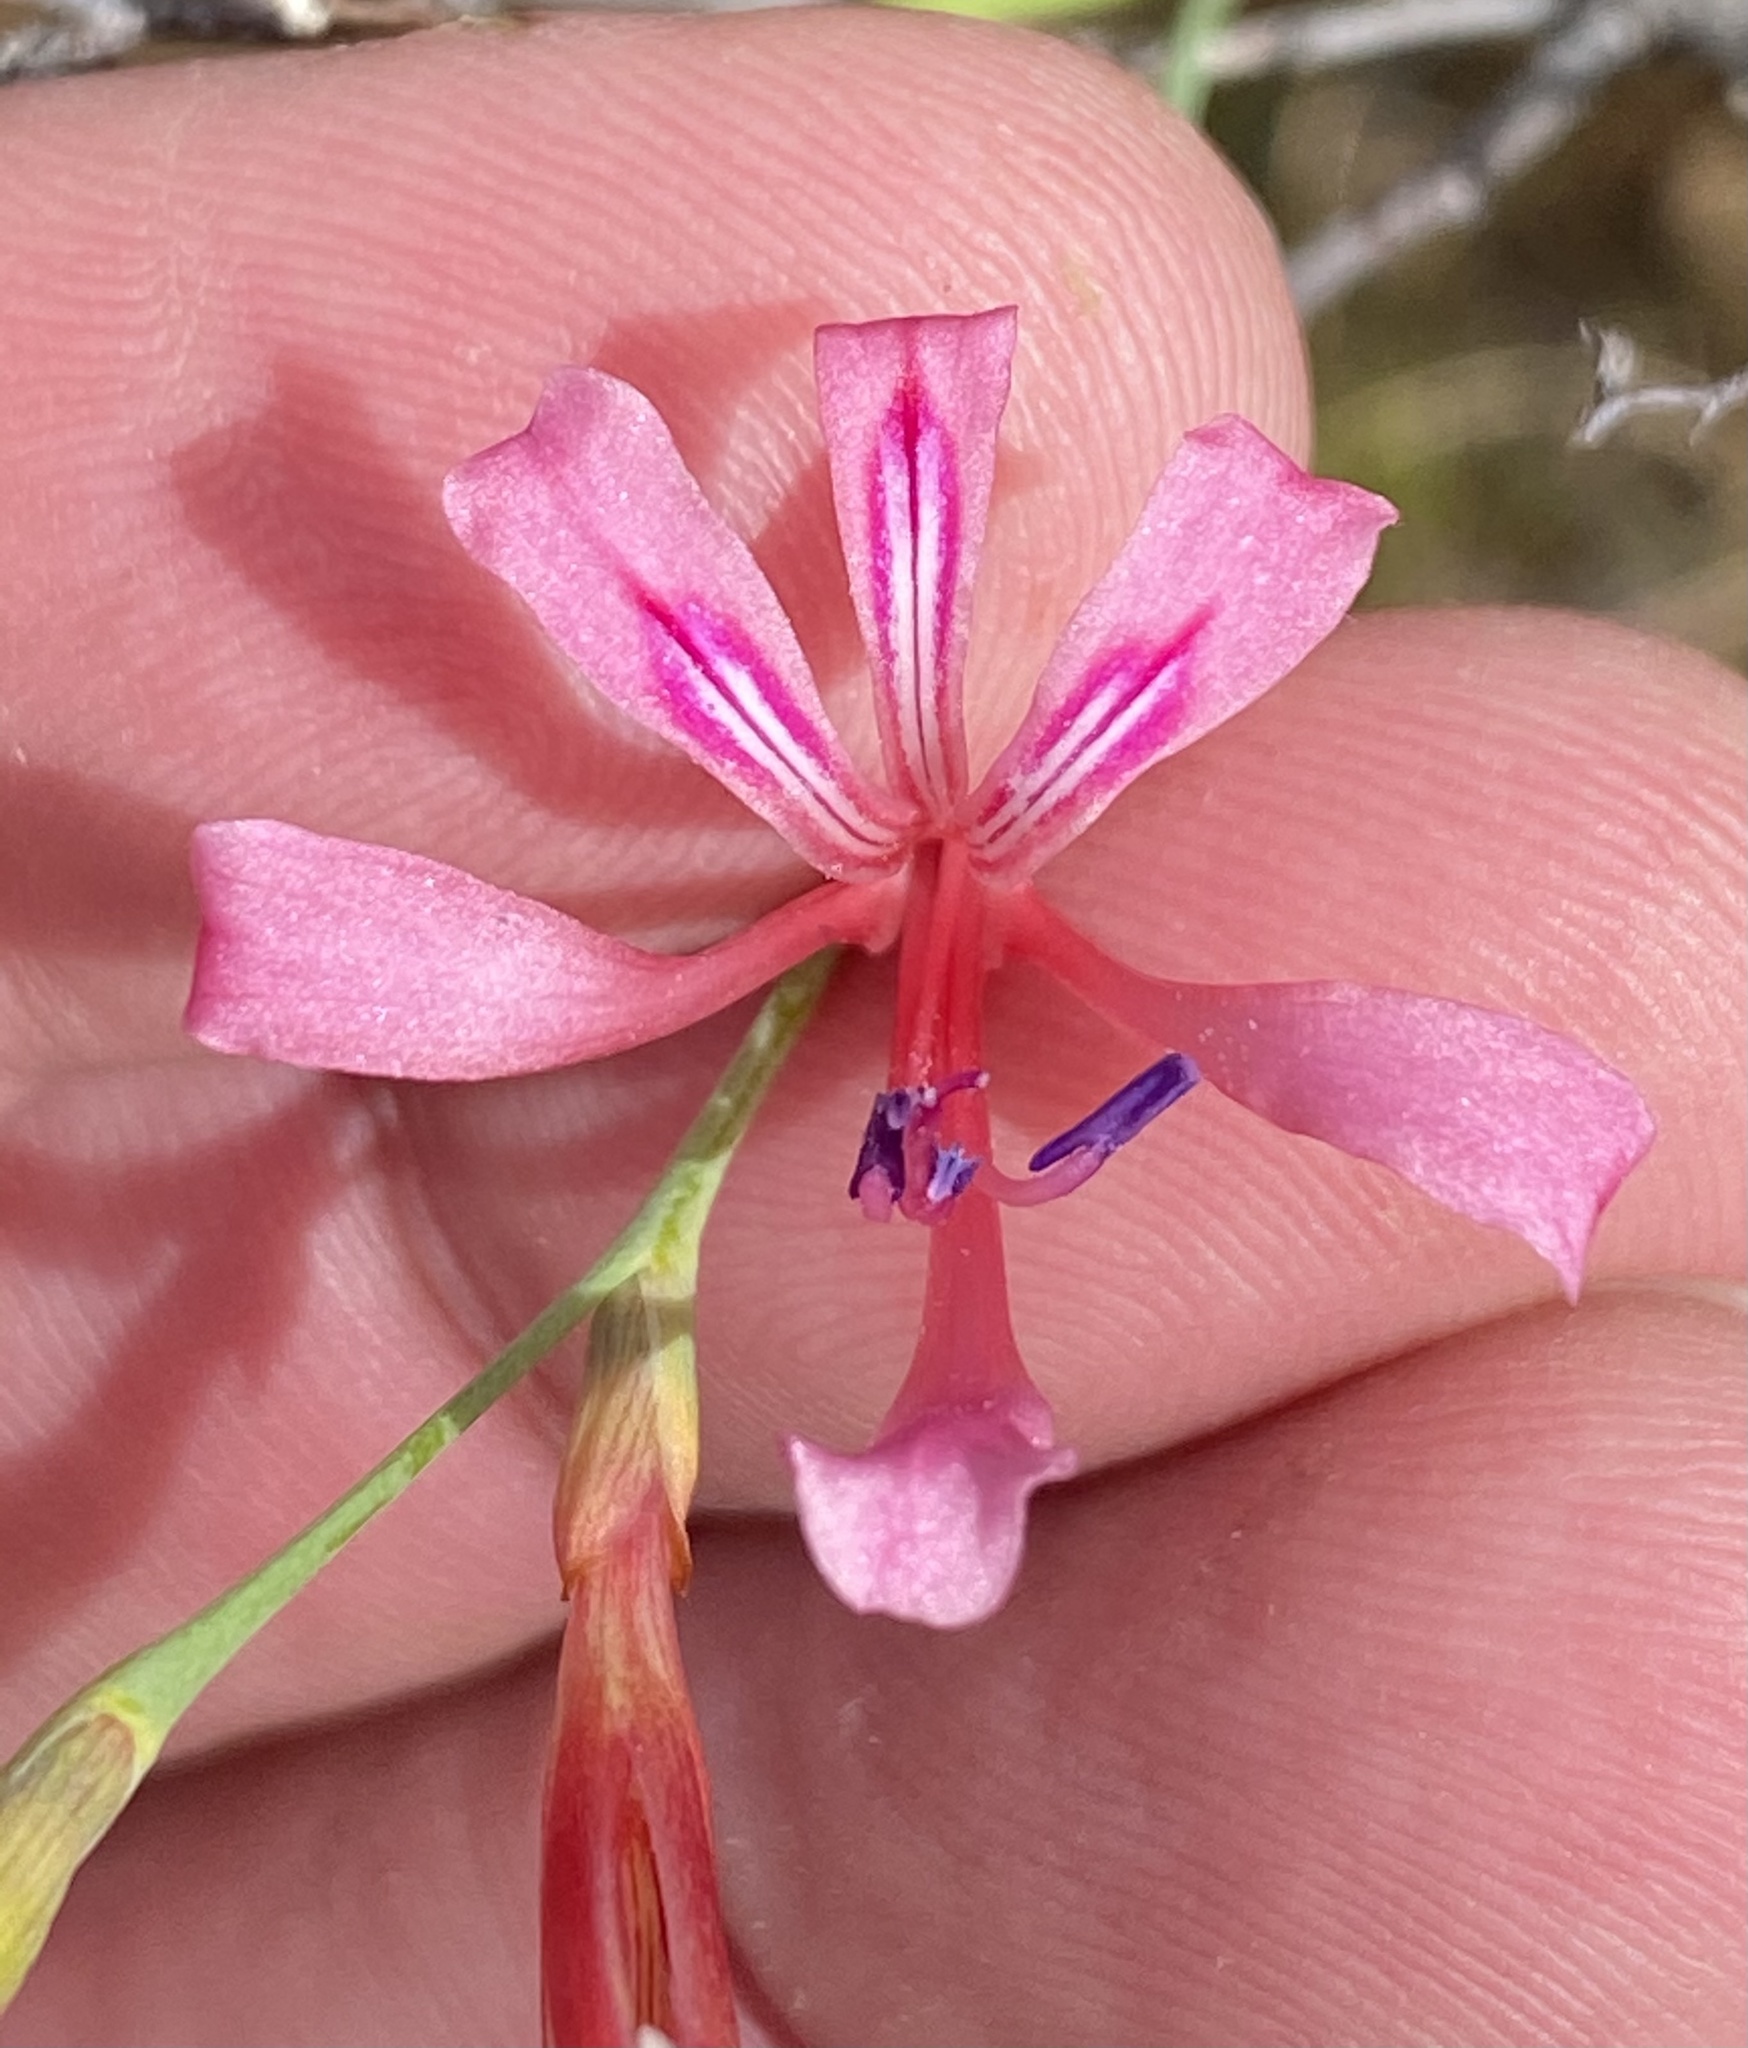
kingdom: Plantae
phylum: Tracheophyta
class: Liliopsida
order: Asparagales
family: Iridaceae
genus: Tritoniopsis
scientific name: Tritoniopsis lata
